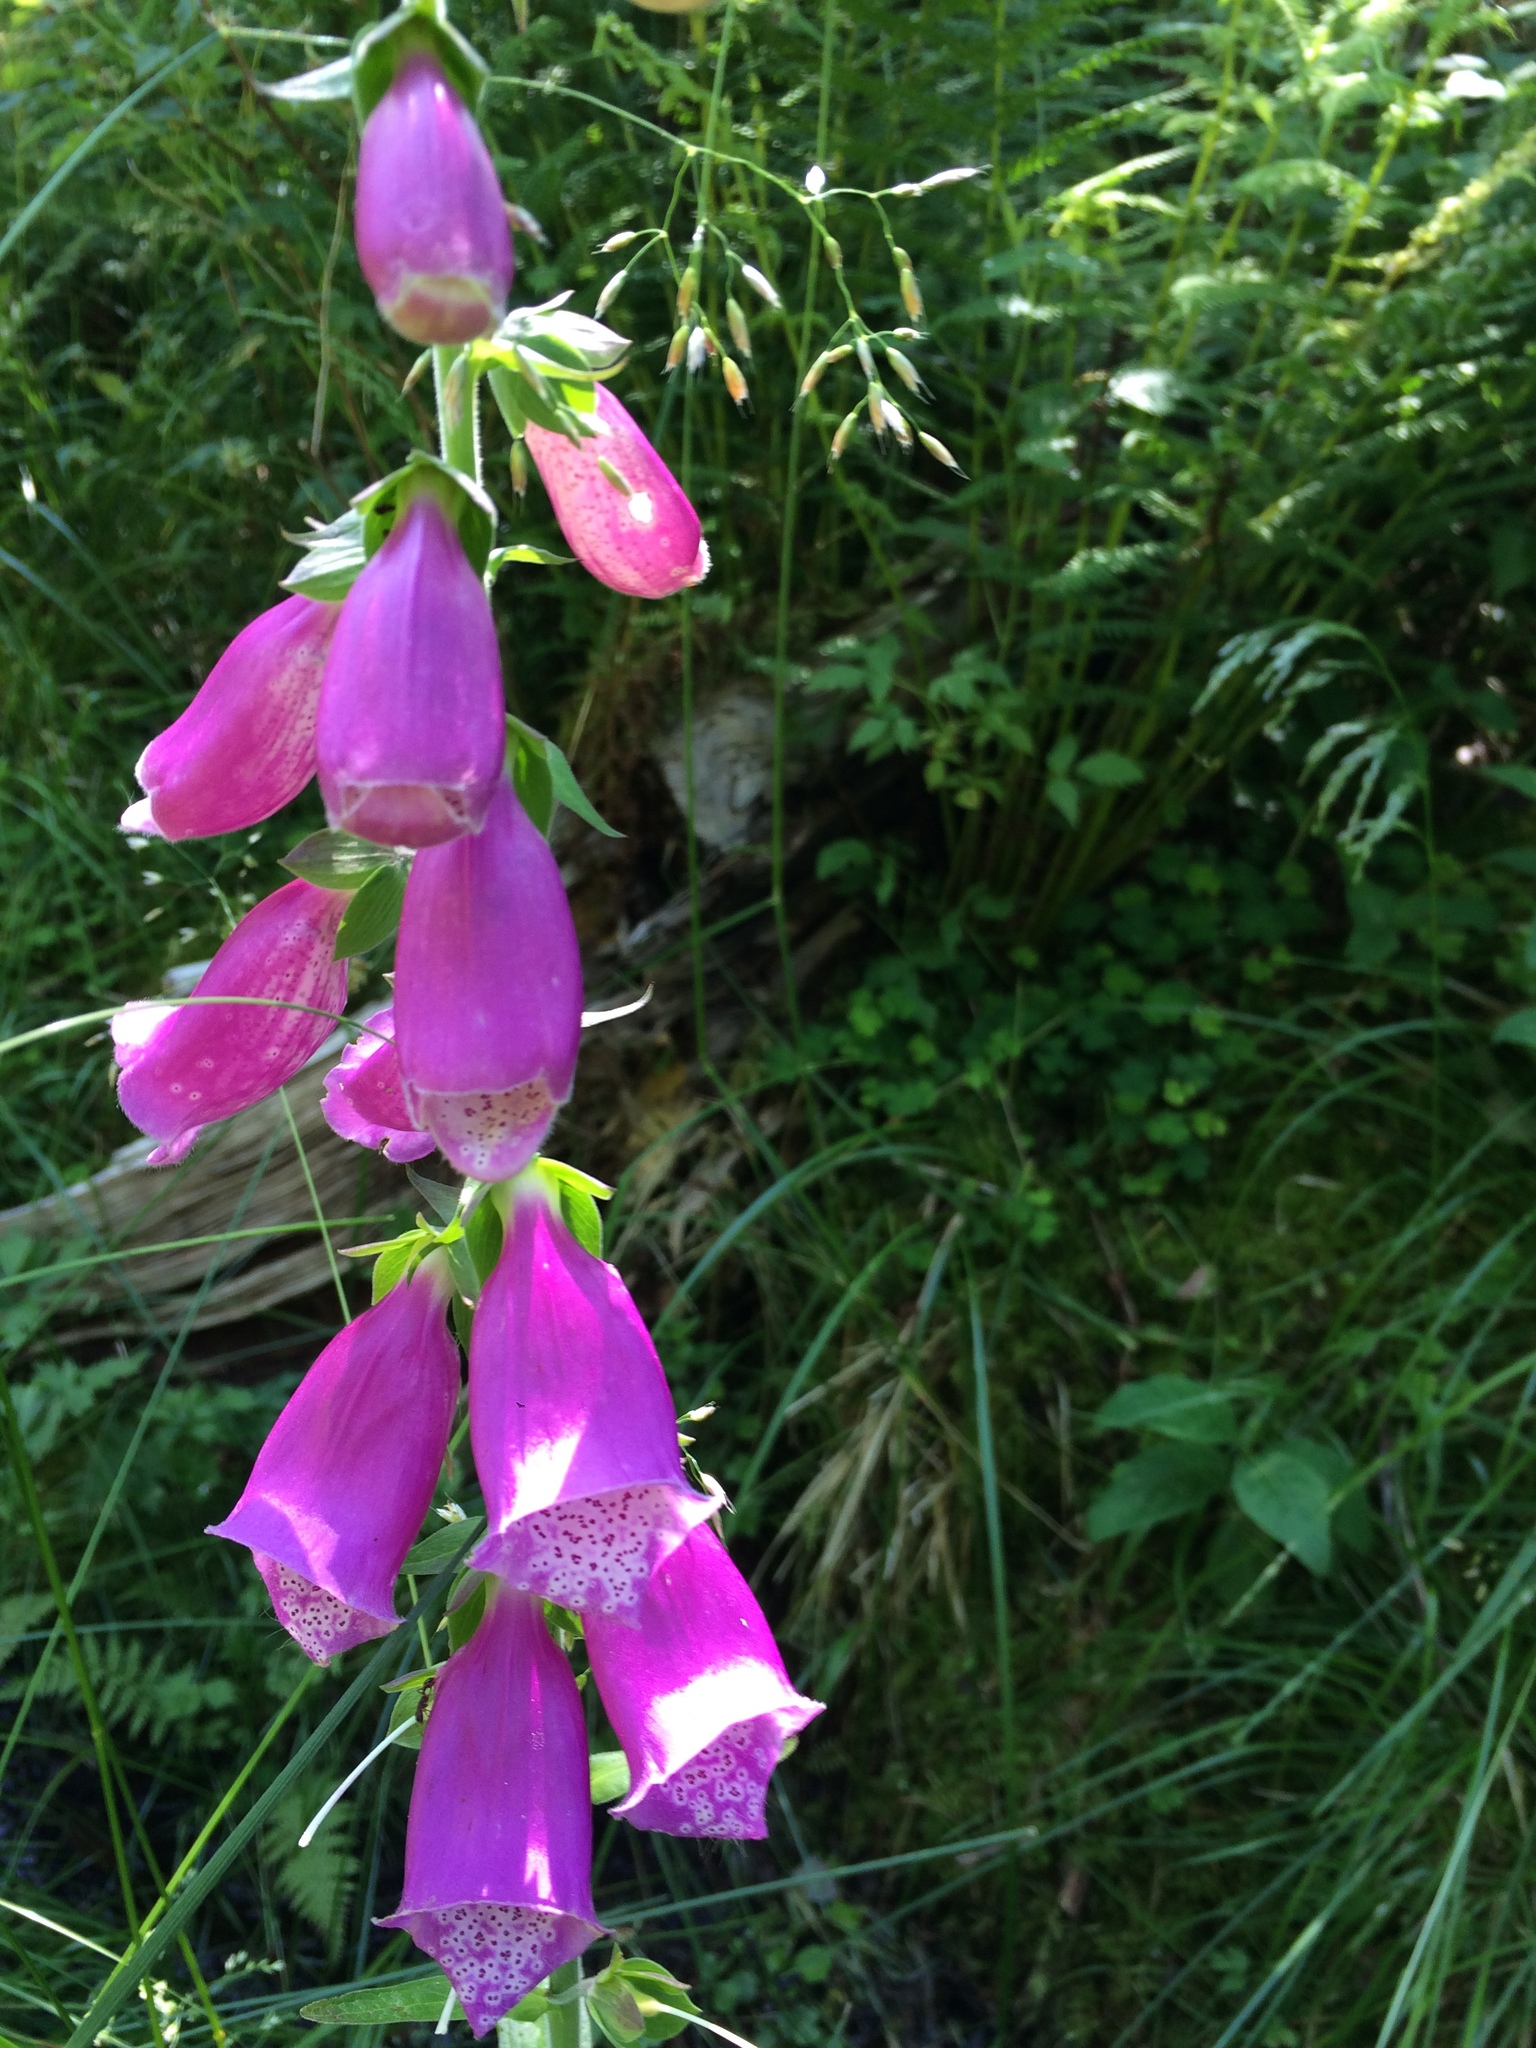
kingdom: Plantae
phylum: Tracheophyta
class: Magnoliopsida
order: Lamiales
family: Plantaginaceae
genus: Digitalis
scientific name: Digitalis purpurea
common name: Foxglove
